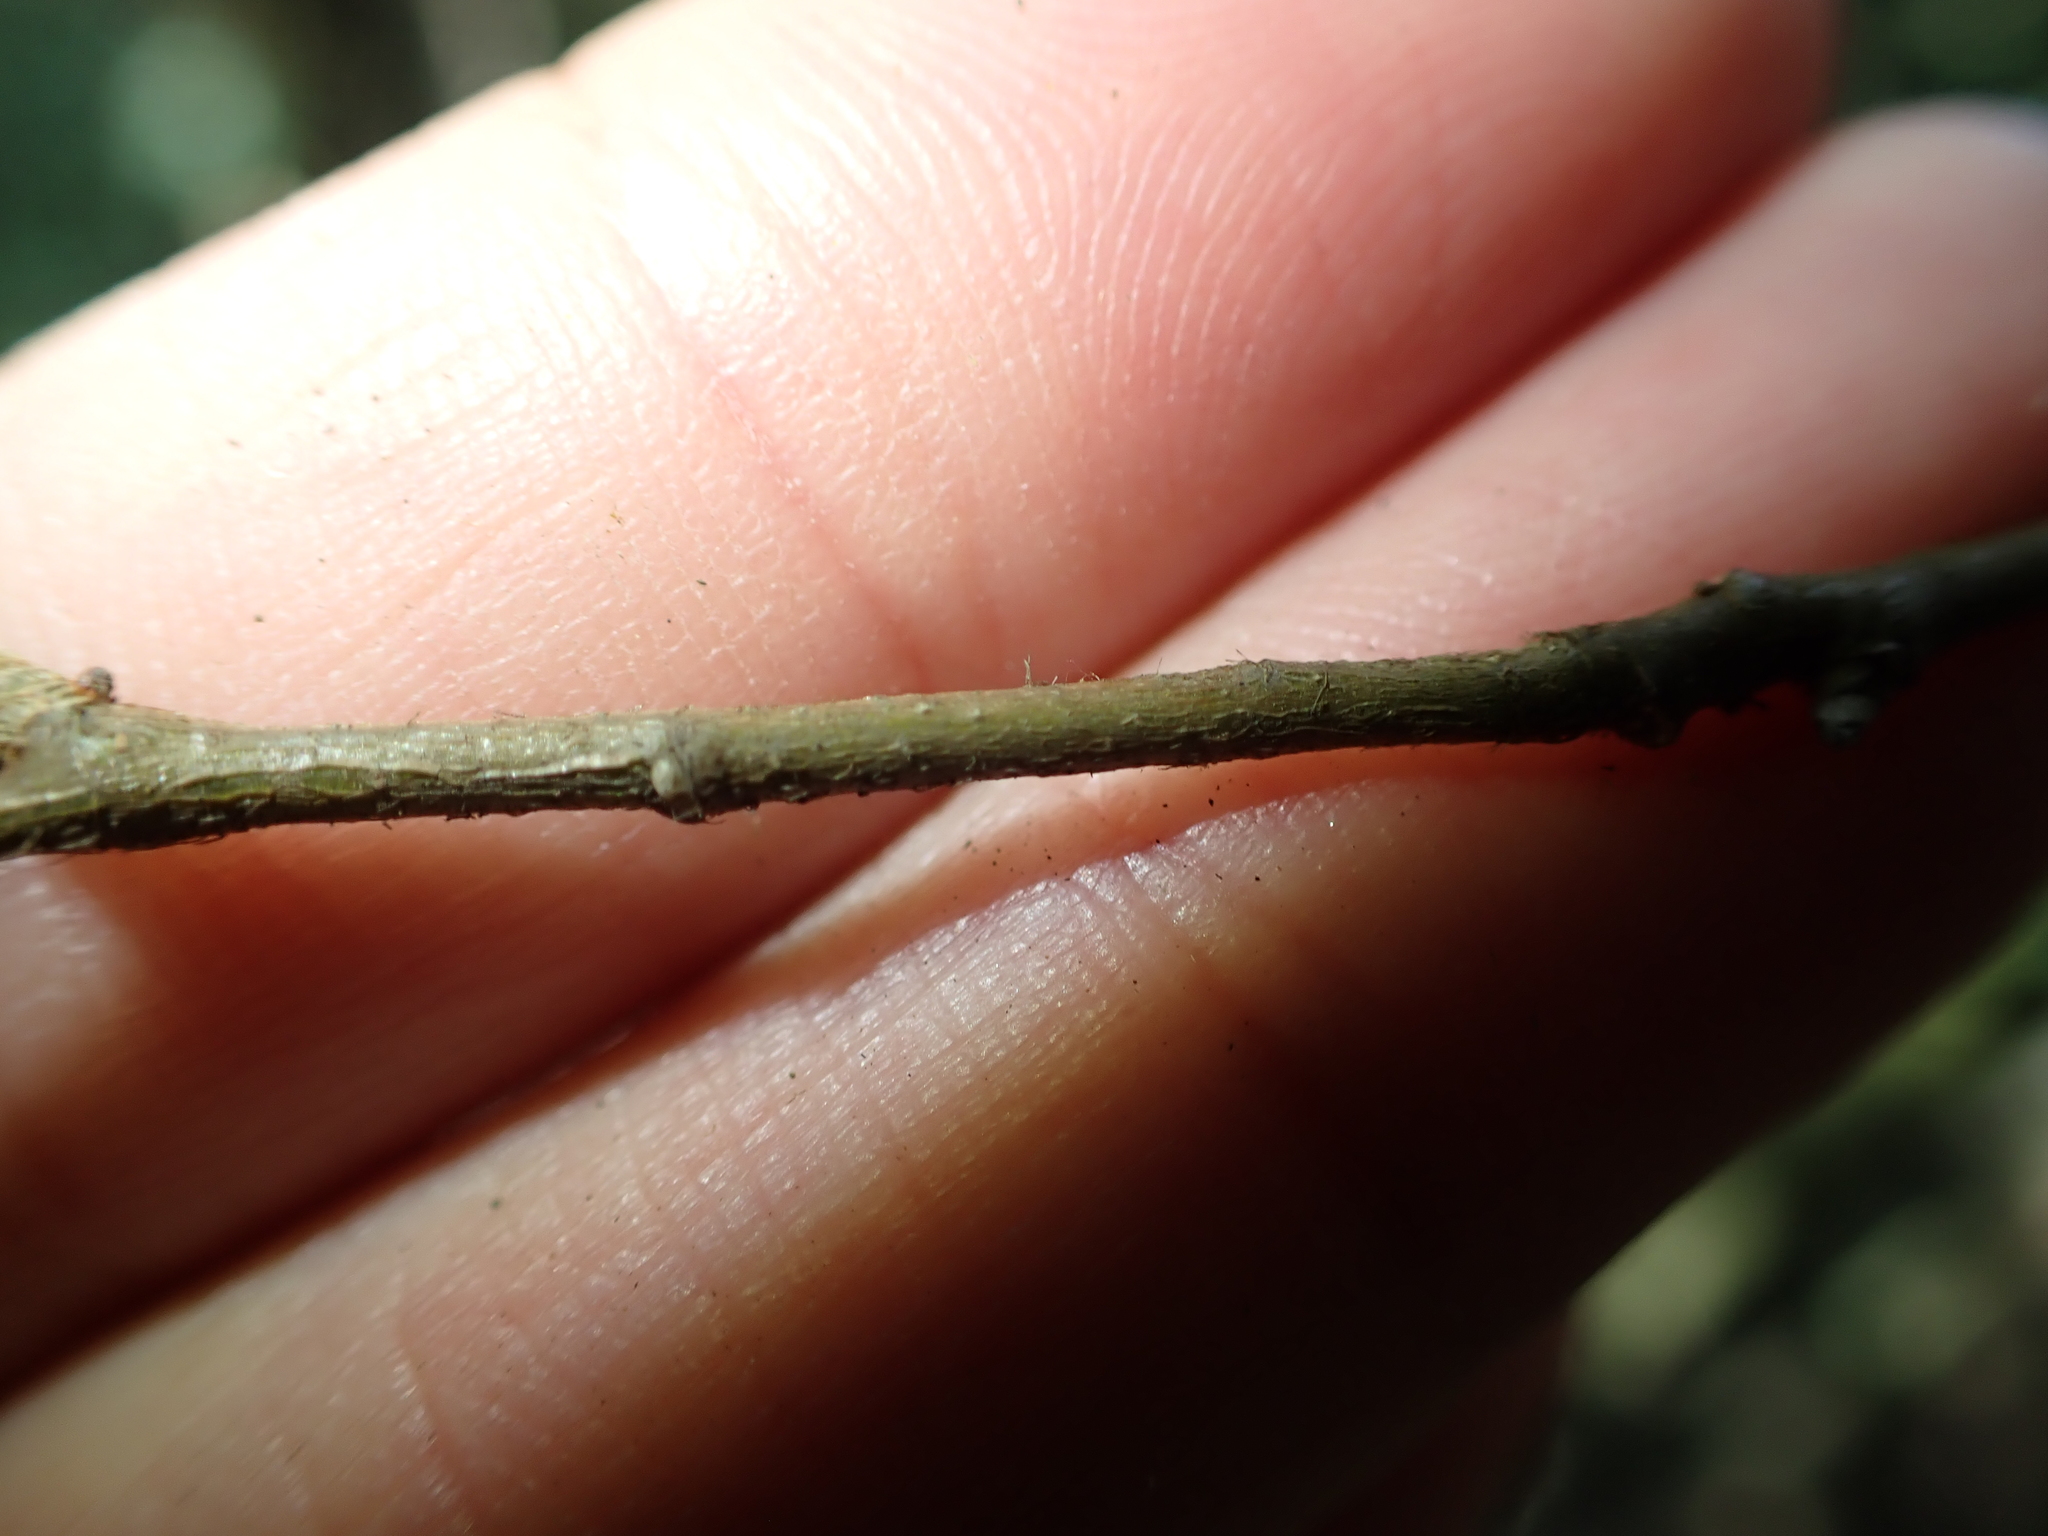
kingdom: Plantae
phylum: Tracheophyta
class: Magnoliopsida
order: Fagales
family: Fagaceae
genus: Lithocarpus
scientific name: Lithocarpus uraianus
